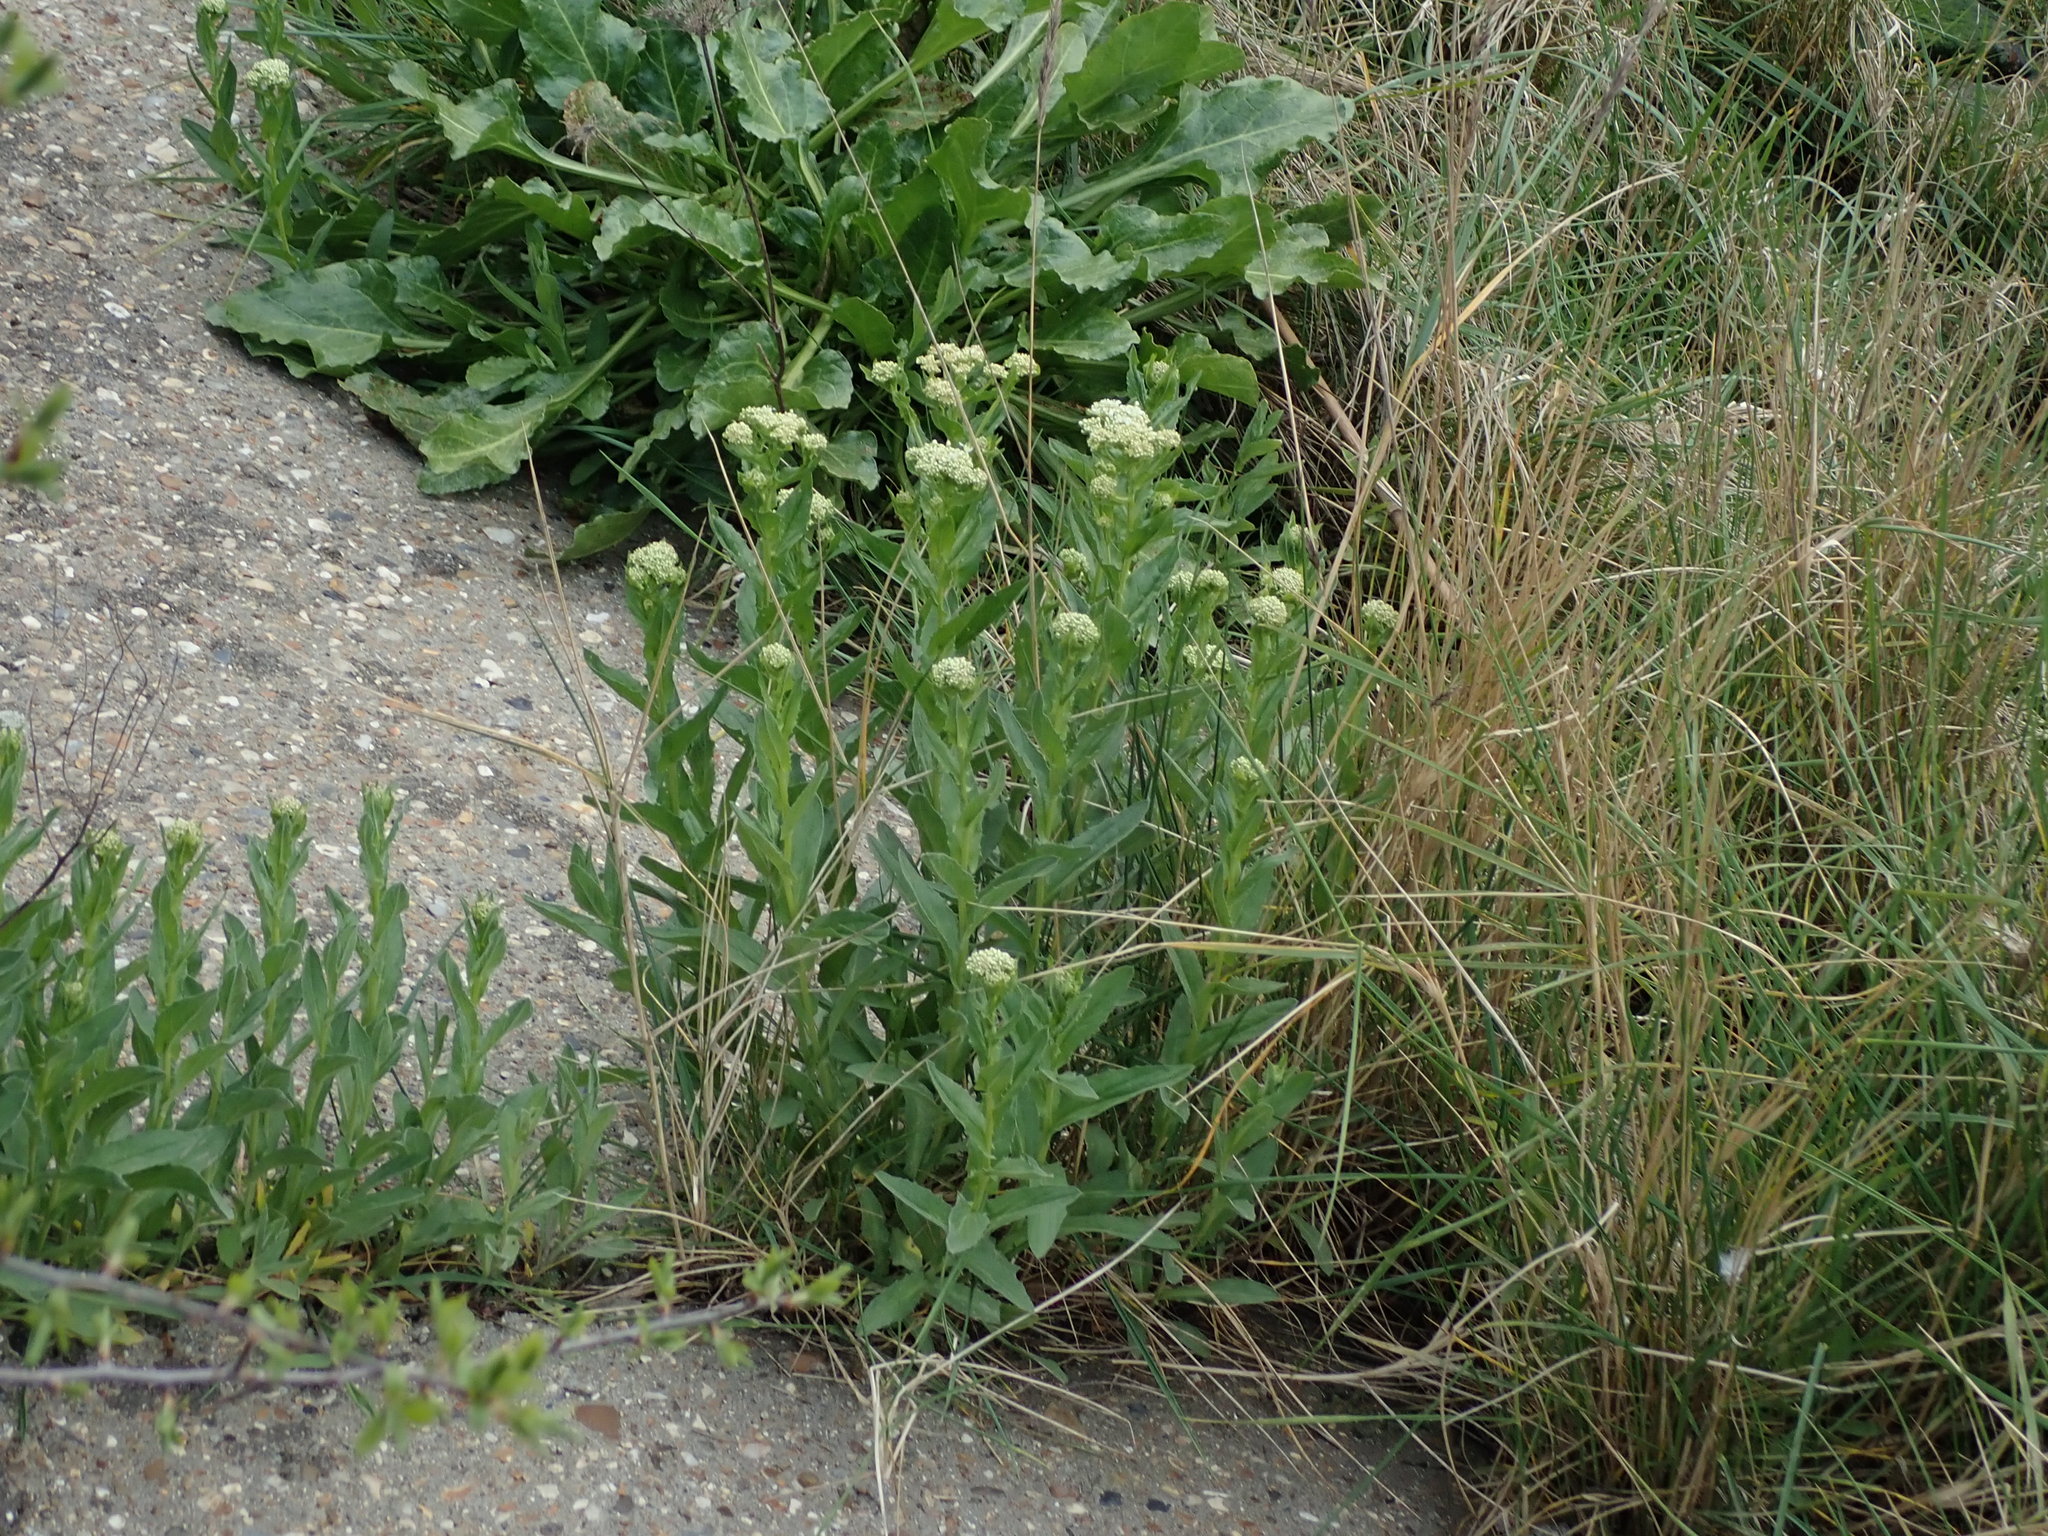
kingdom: Plantae
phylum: Tracheophyta
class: Magnoliopsida
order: Brassicales
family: Brassicaceae
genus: Lepidium
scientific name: Lepidium draba
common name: Hoary cress
